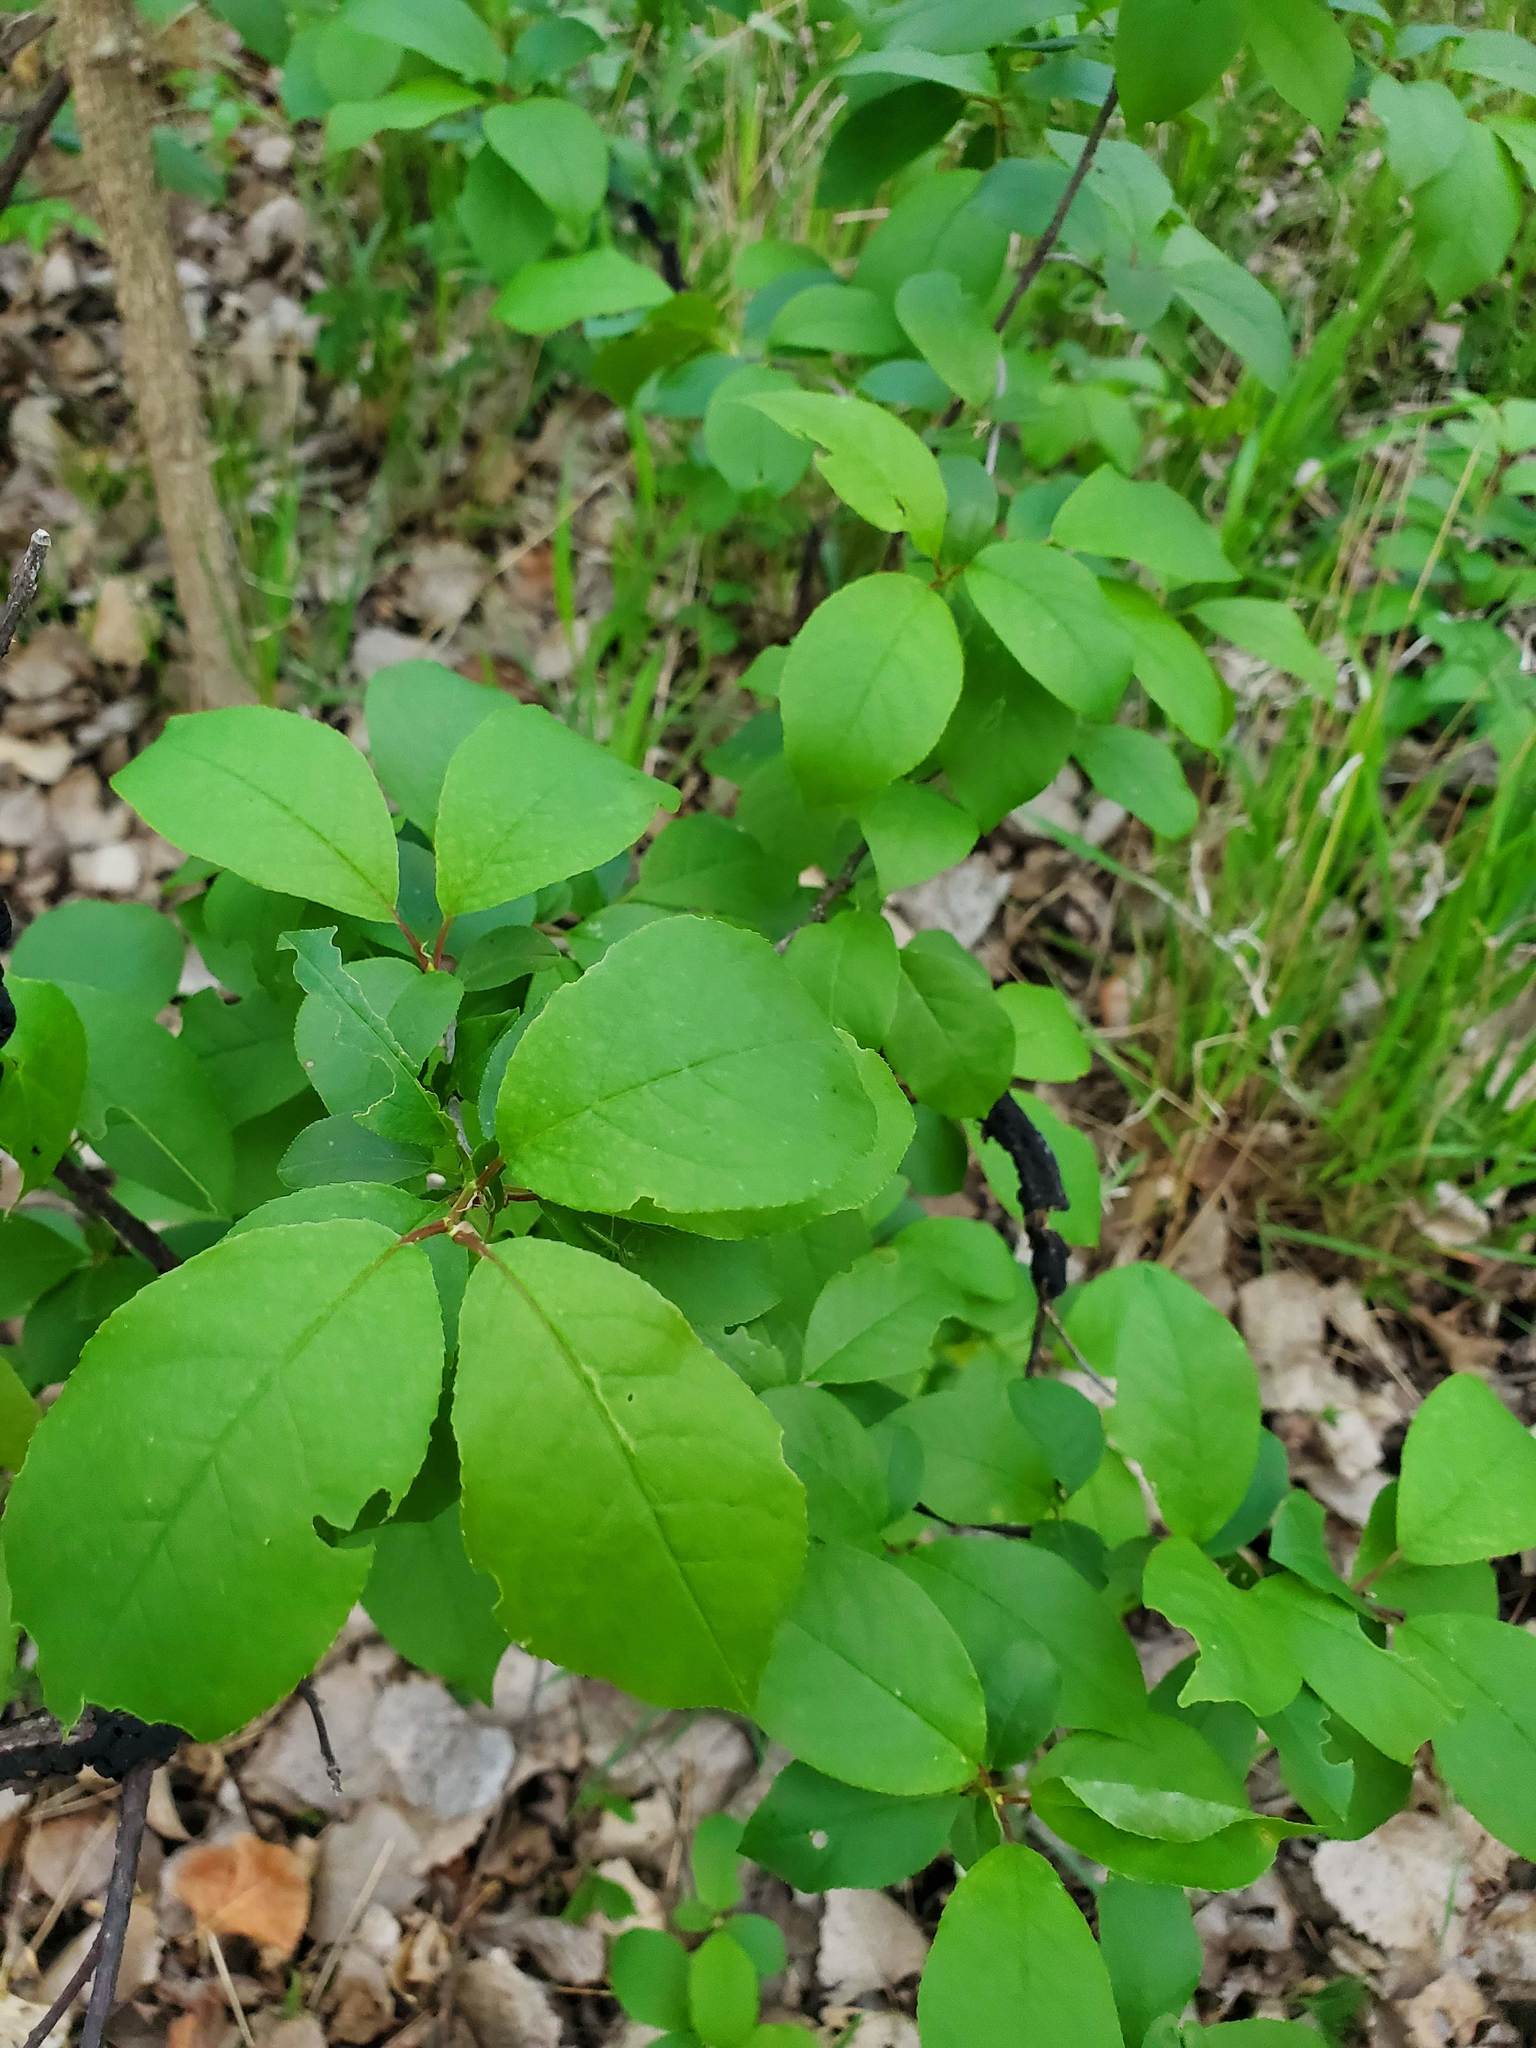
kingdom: Plantae
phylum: Tracheophyta
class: Magnoliopsida
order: Rosales
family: Rosaceae
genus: Prunus
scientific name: Prunus virginiana
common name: Chokecherry
